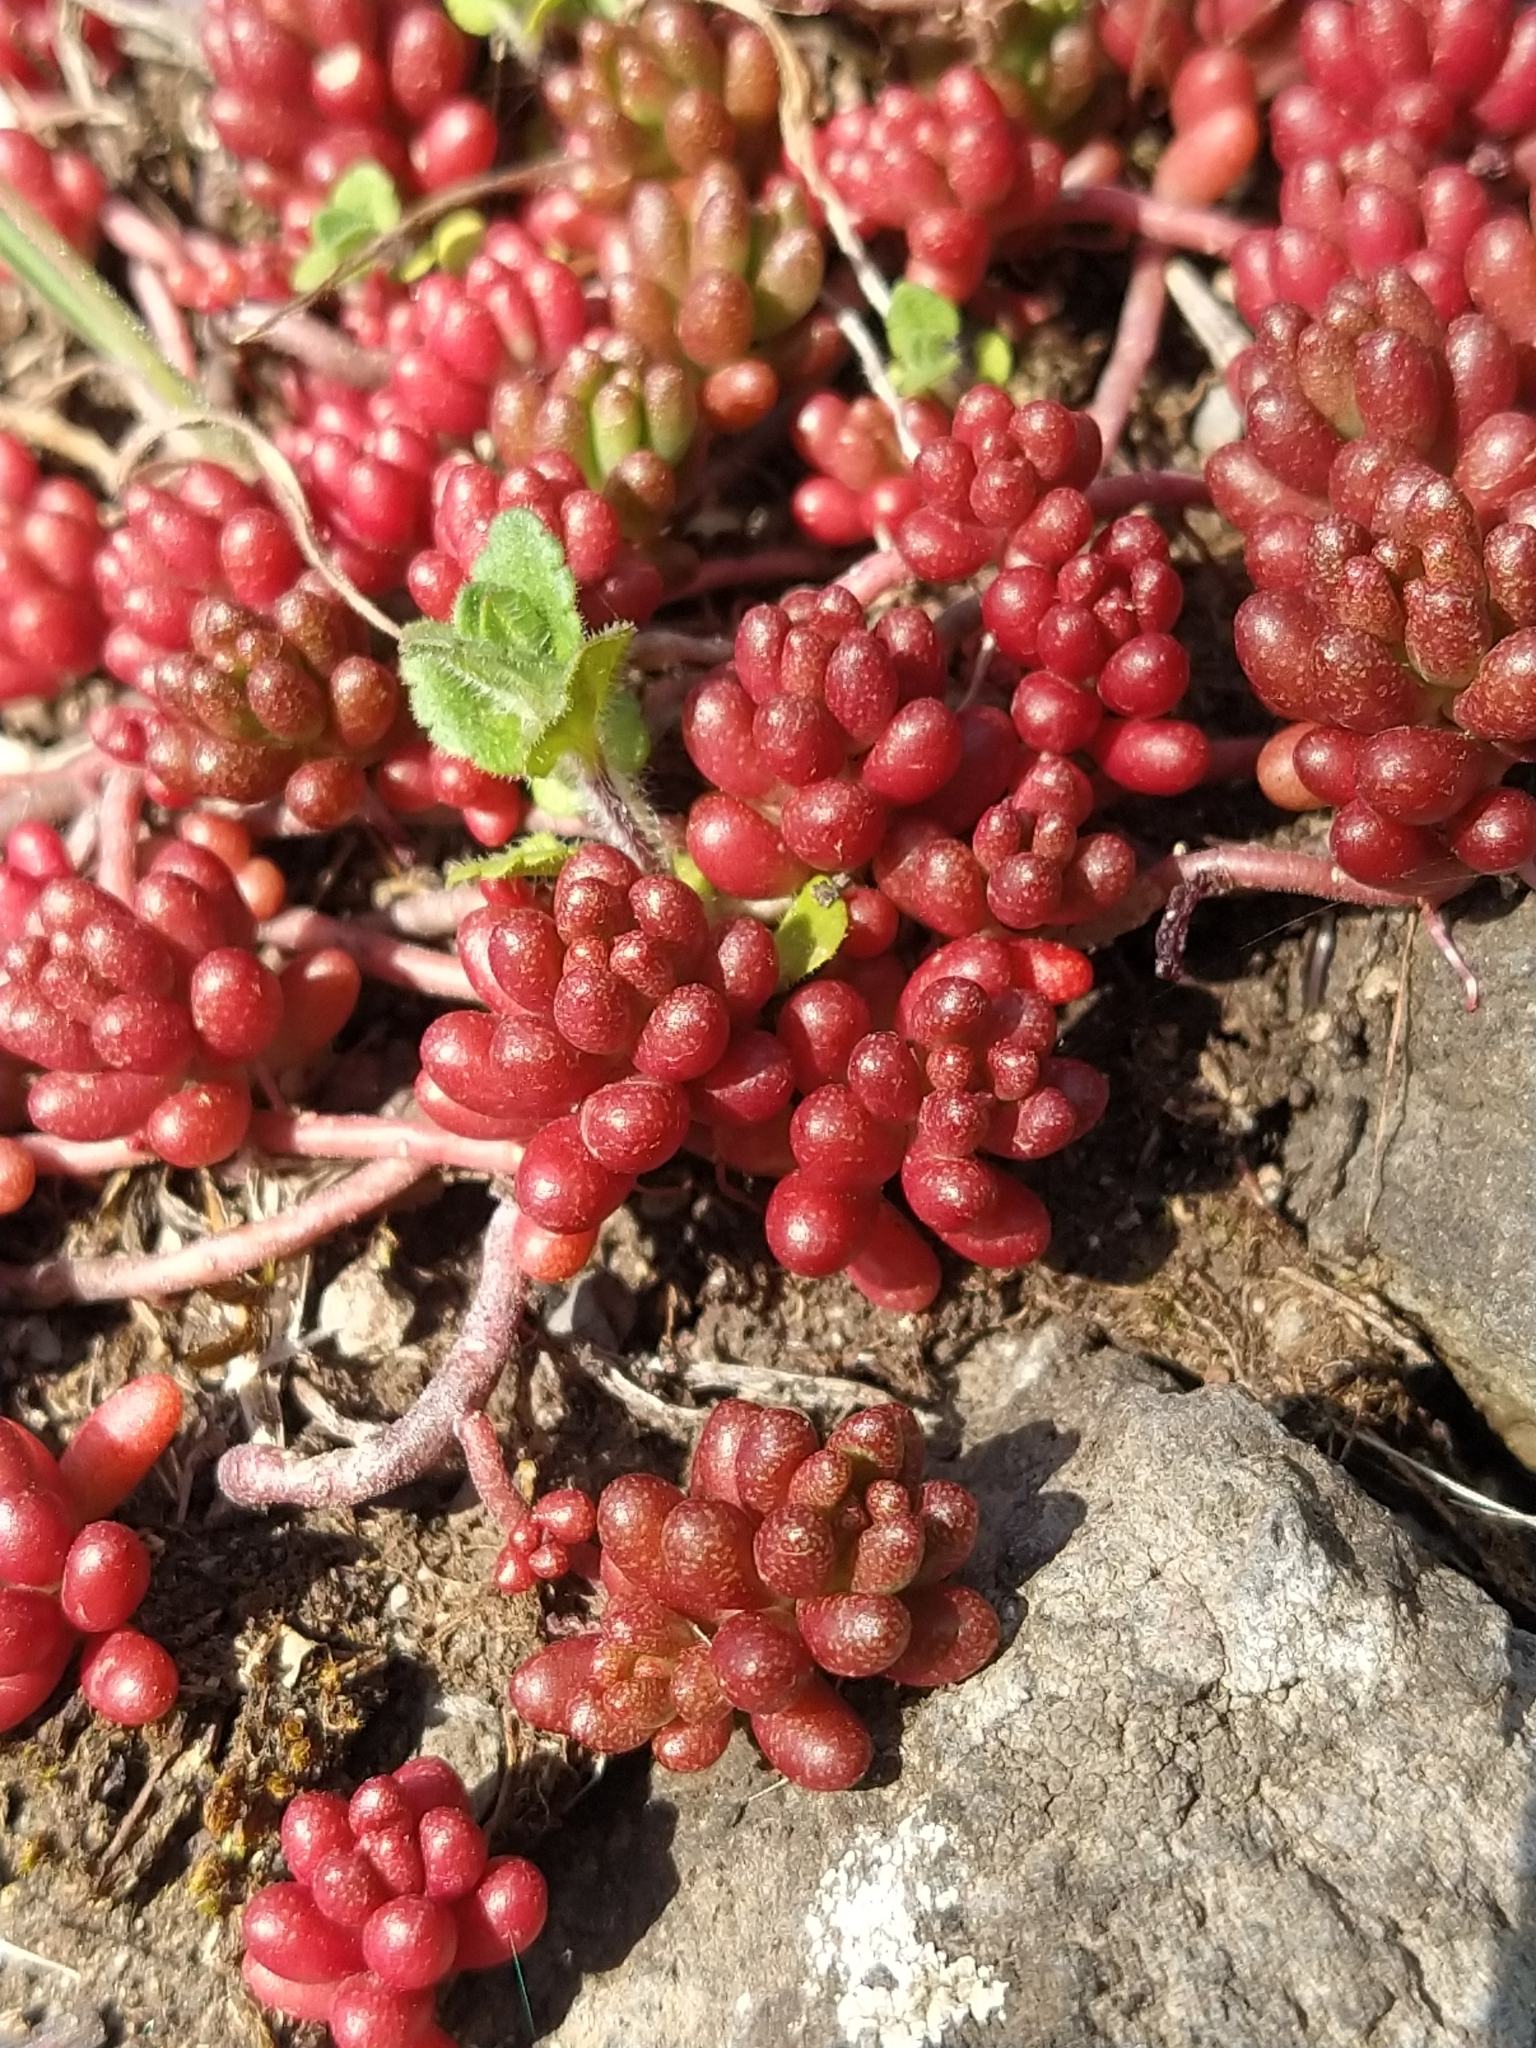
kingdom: Plantae
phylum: Tracheophyta
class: Magnoliopsida
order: Saxifragales
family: Crassulaceae
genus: Sedum
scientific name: Sedum album
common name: White stonecrop
